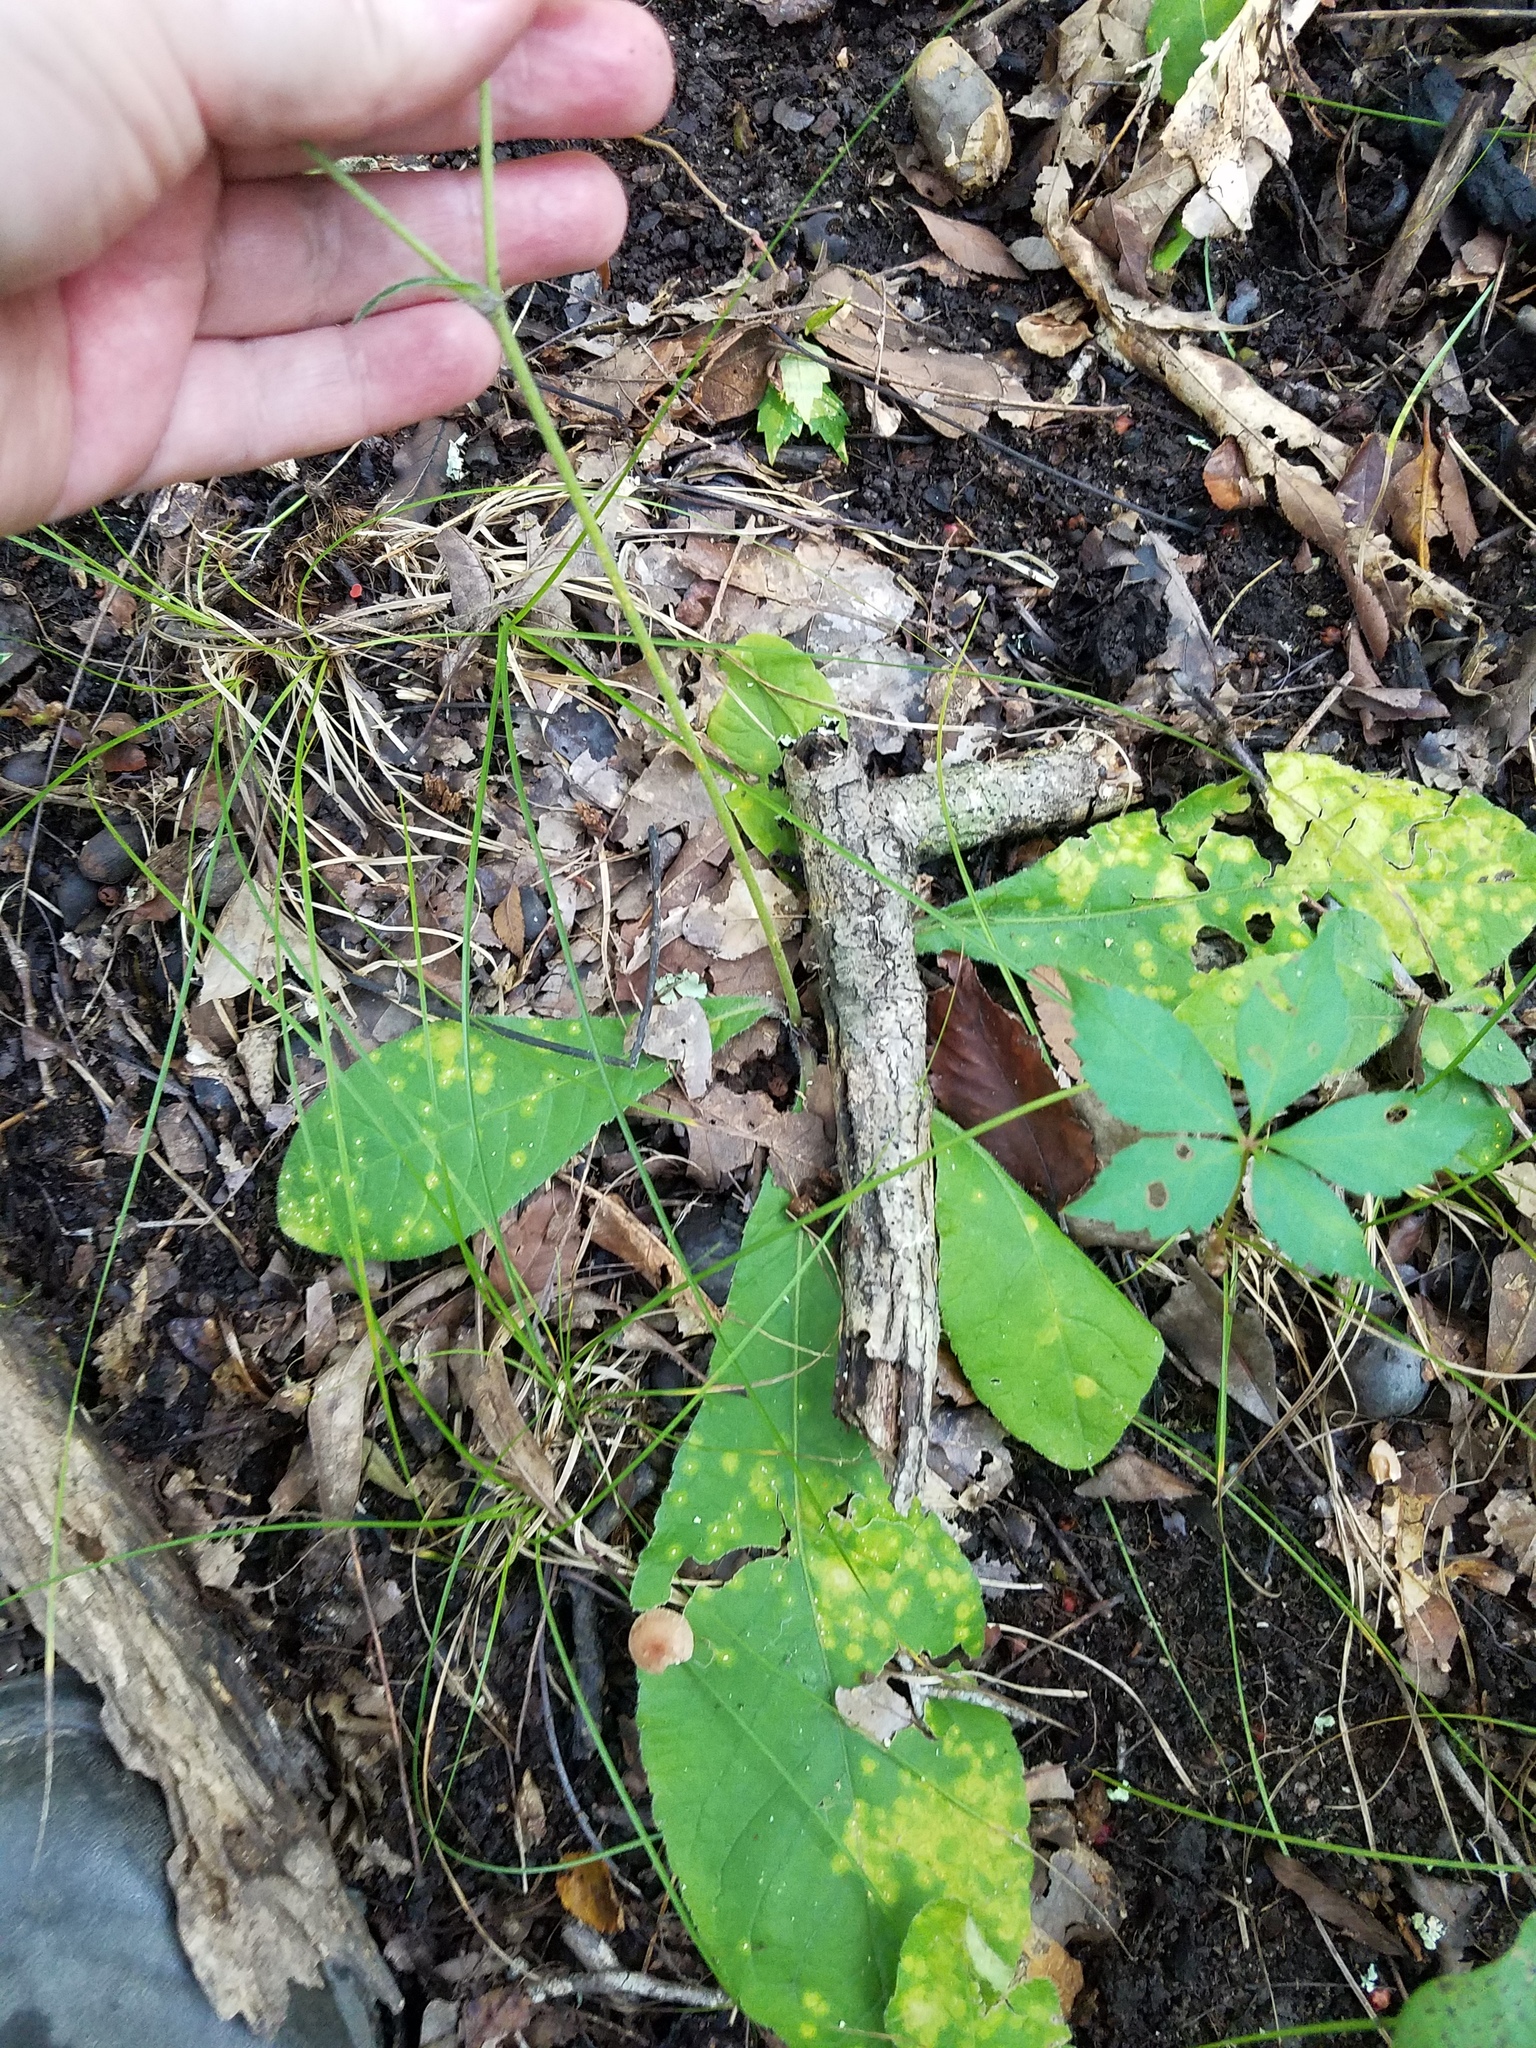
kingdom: Plantae
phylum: Tracheophyta
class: Magnoliopsida
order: Asterales
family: Asteraceae
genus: Elephantopus
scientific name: Elephantopus tomentosus
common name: Tobacco-weed
